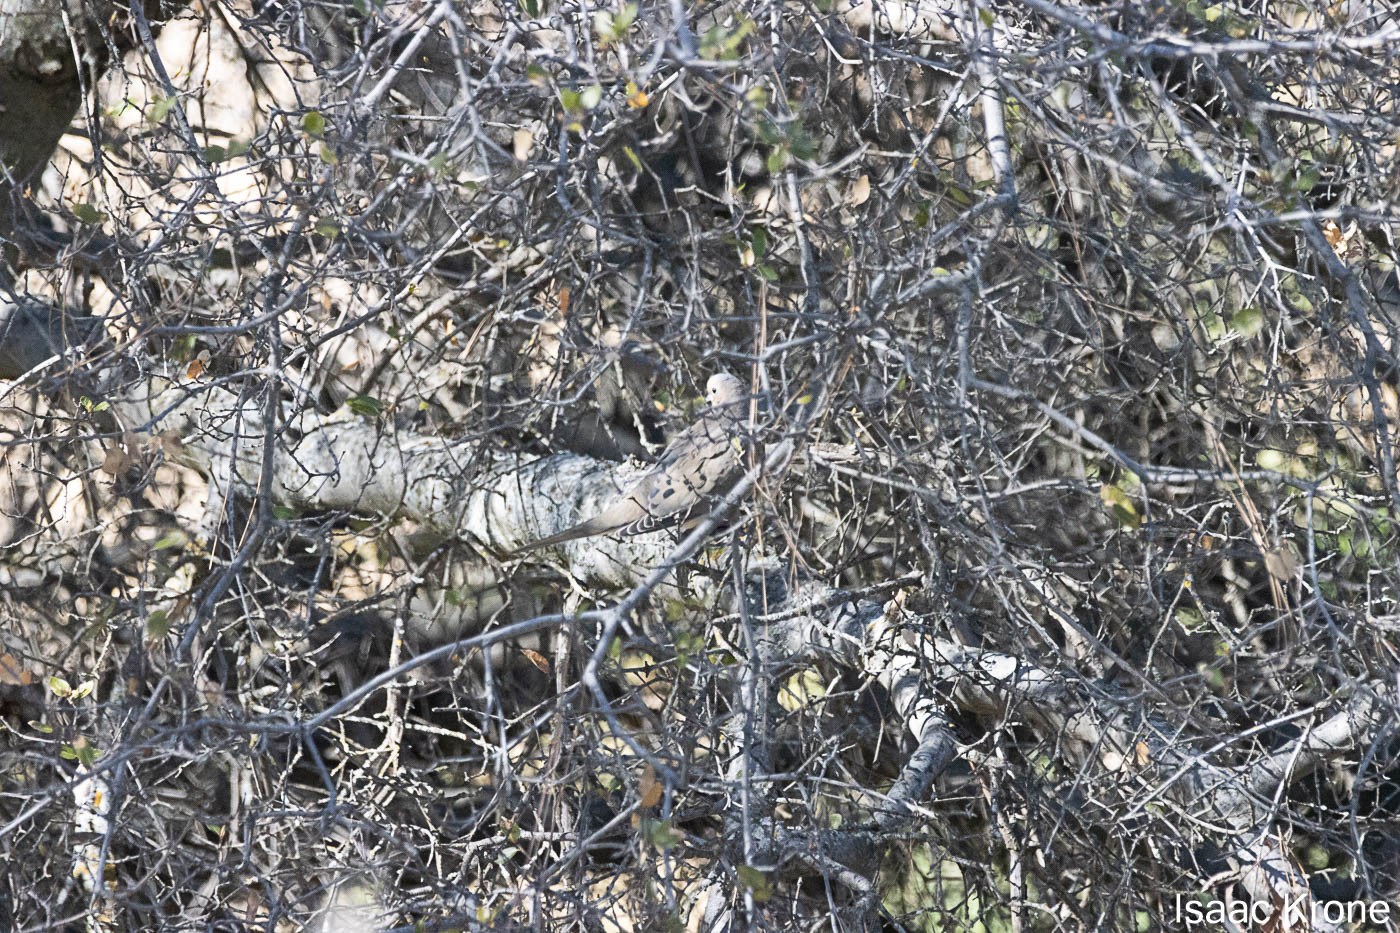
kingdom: Animalia
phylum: Chordata
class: Aves
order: Columbiformes
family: Columbidae
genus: Zenaida
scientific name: Zenaida macroura
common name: Mourning dove
